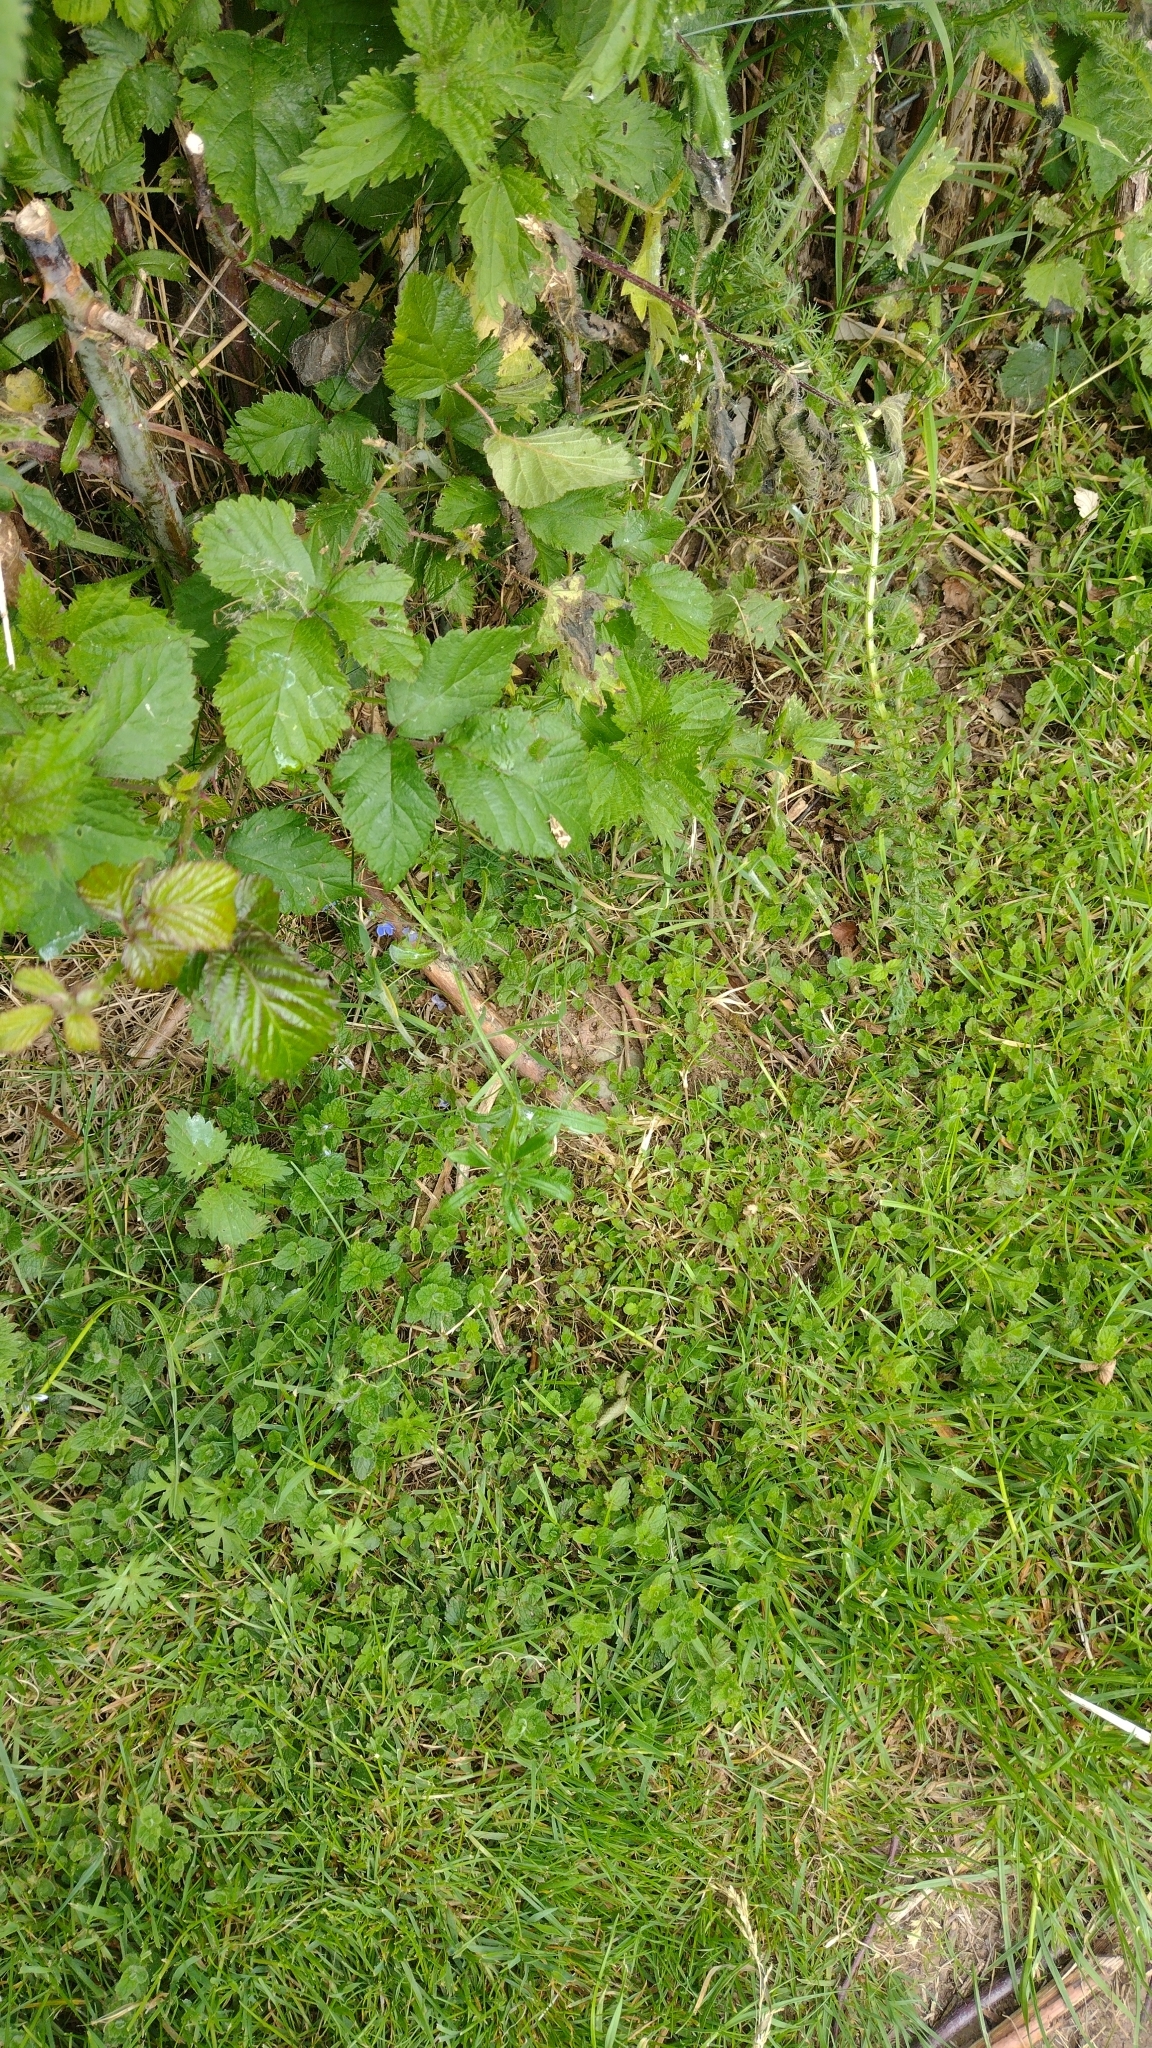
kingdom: Animalia
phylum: Arthropoda
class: Insecta
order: Lepidoptera
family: Tortricidae
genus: Syricoris
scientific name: Syricoris lacunana
